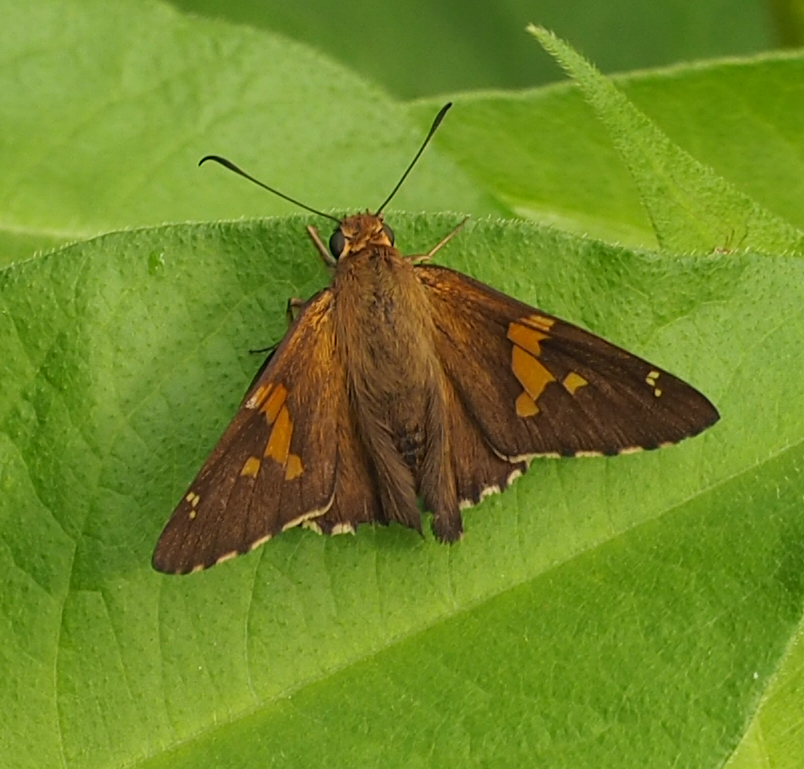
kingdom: Animalia
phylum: Arthropoda
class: Insecta
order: Lepidoptera
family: Hesperiidae
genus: Epargyreus
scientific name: Epargyreus clarus
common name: Silver-spotted skipper
